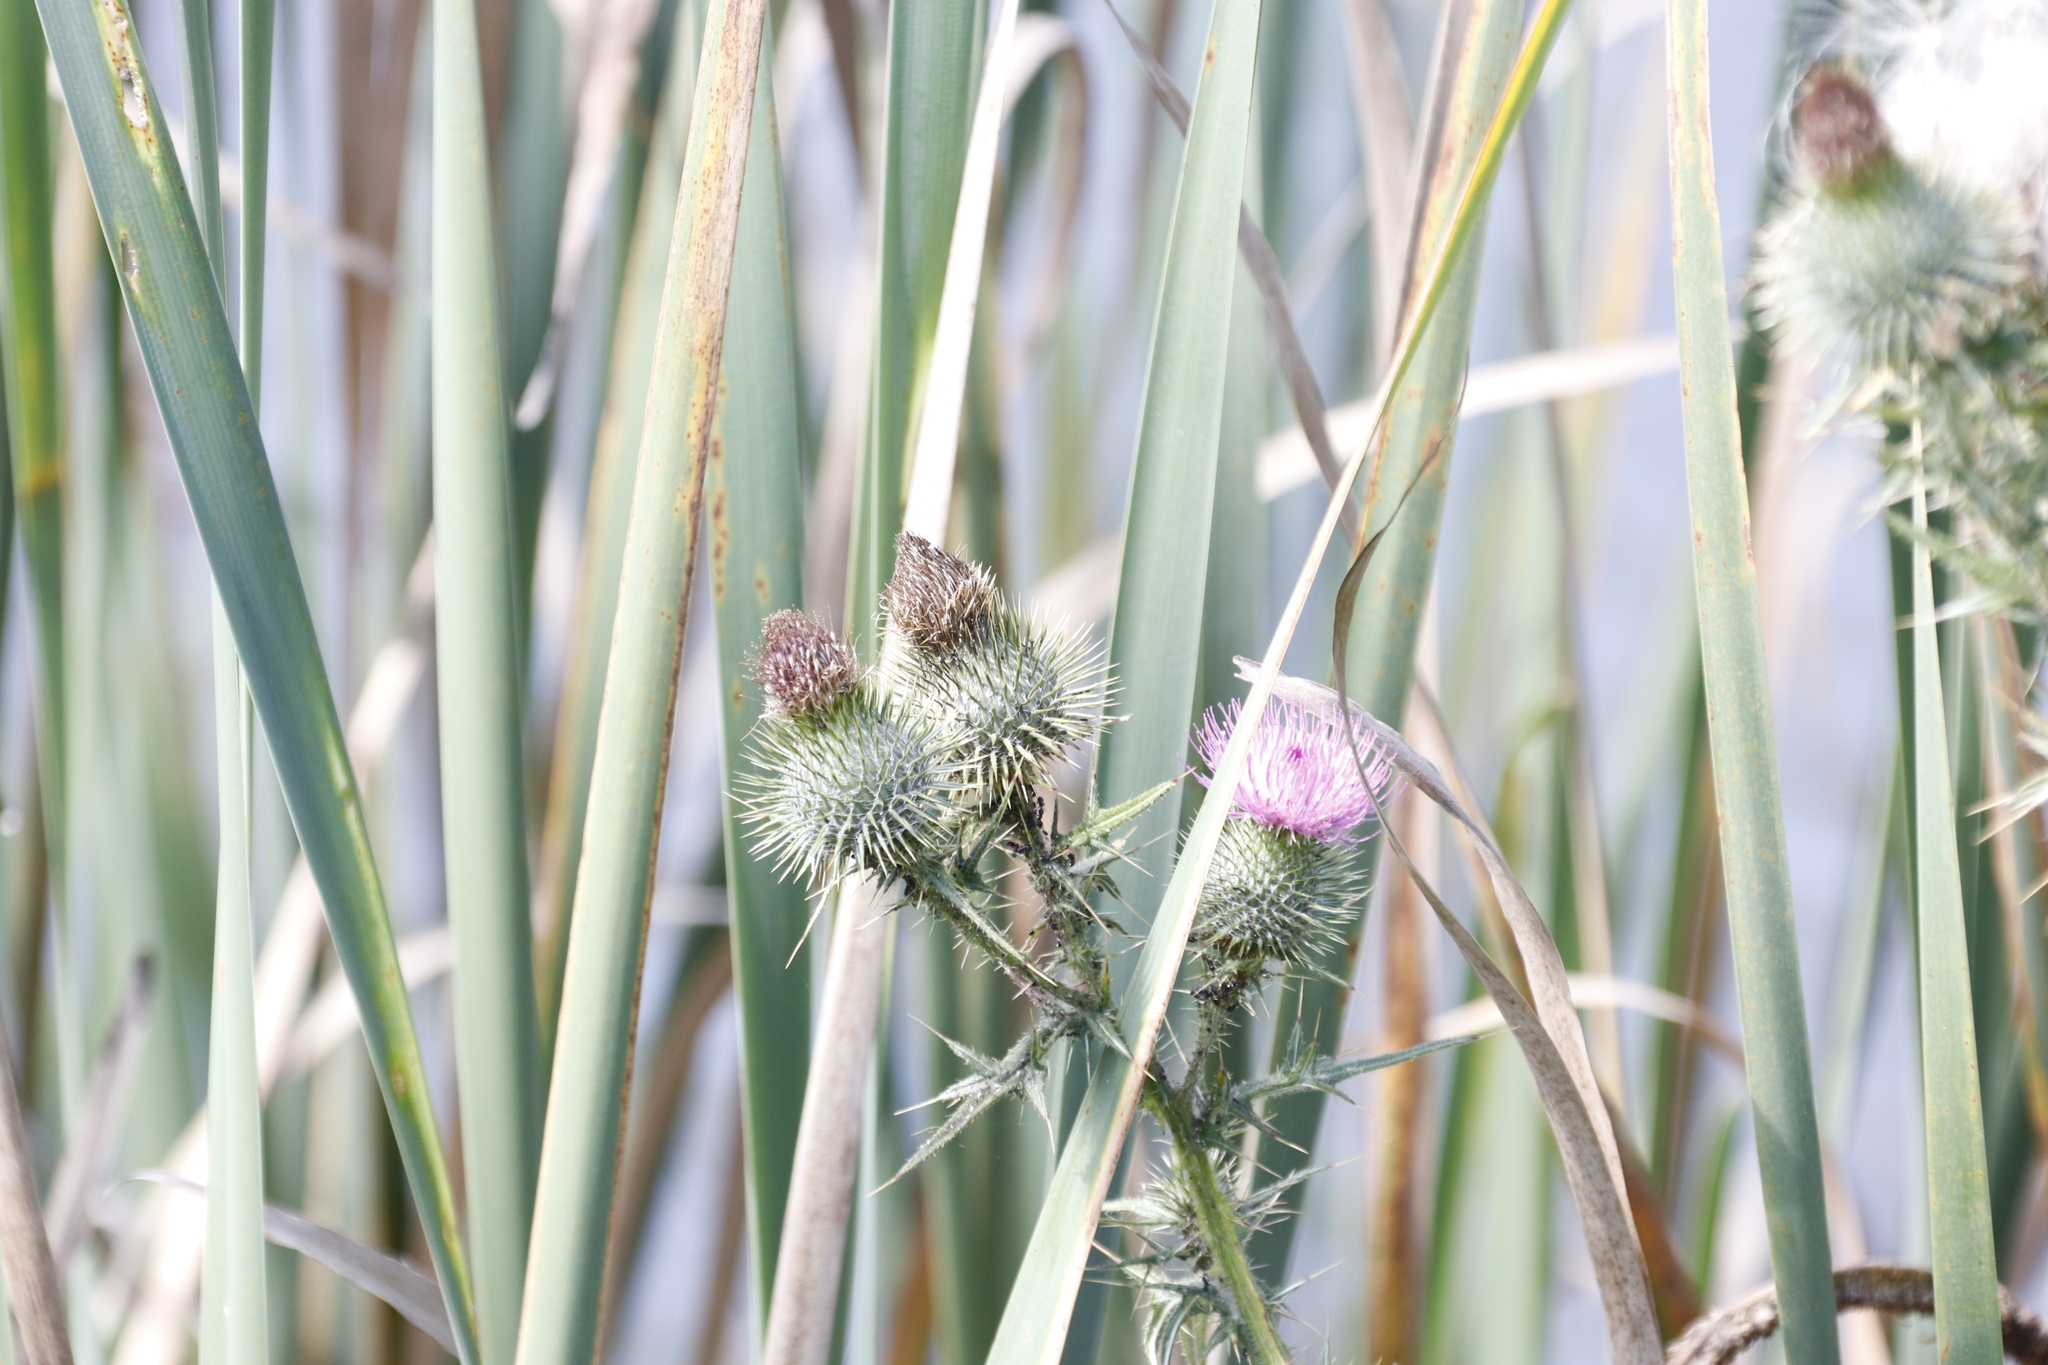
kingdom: Plantae
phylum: Tracheophyta
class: Magnoliopsida
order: Asterales
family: Asteraceae
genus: Cirsium
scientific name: Cirsium vulgare
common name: Bull thistle
